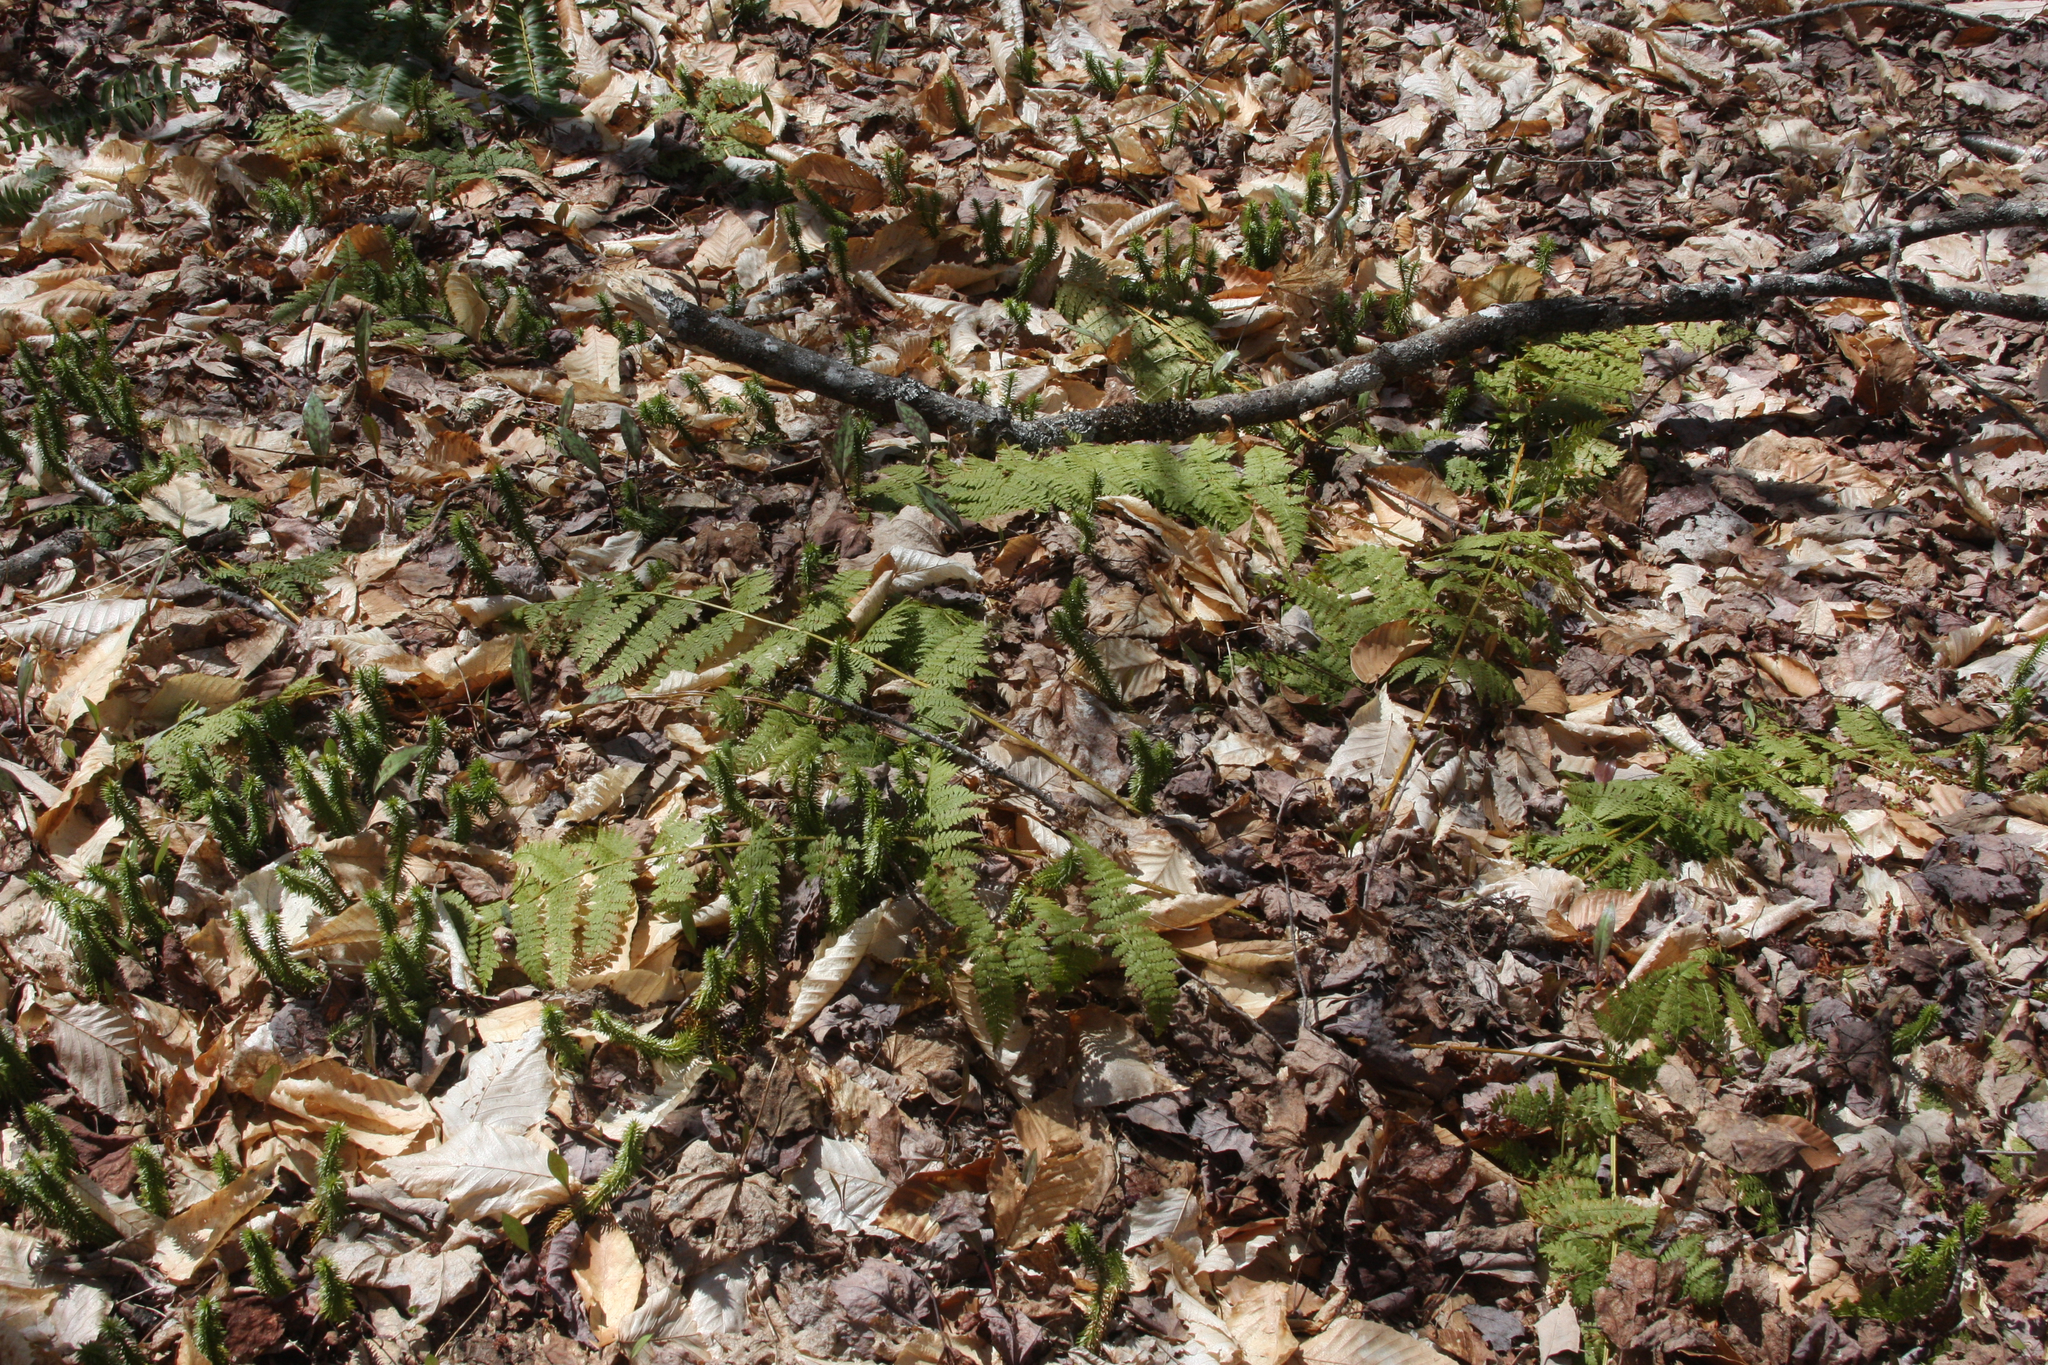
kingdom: Plantae
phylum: Tracheophyta
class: Polypodiopsida
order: Polypodiales
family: Dryopteridaceae
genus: Dryopteris
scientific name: Dryopteris intermedia
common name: Evergreen wood fern
